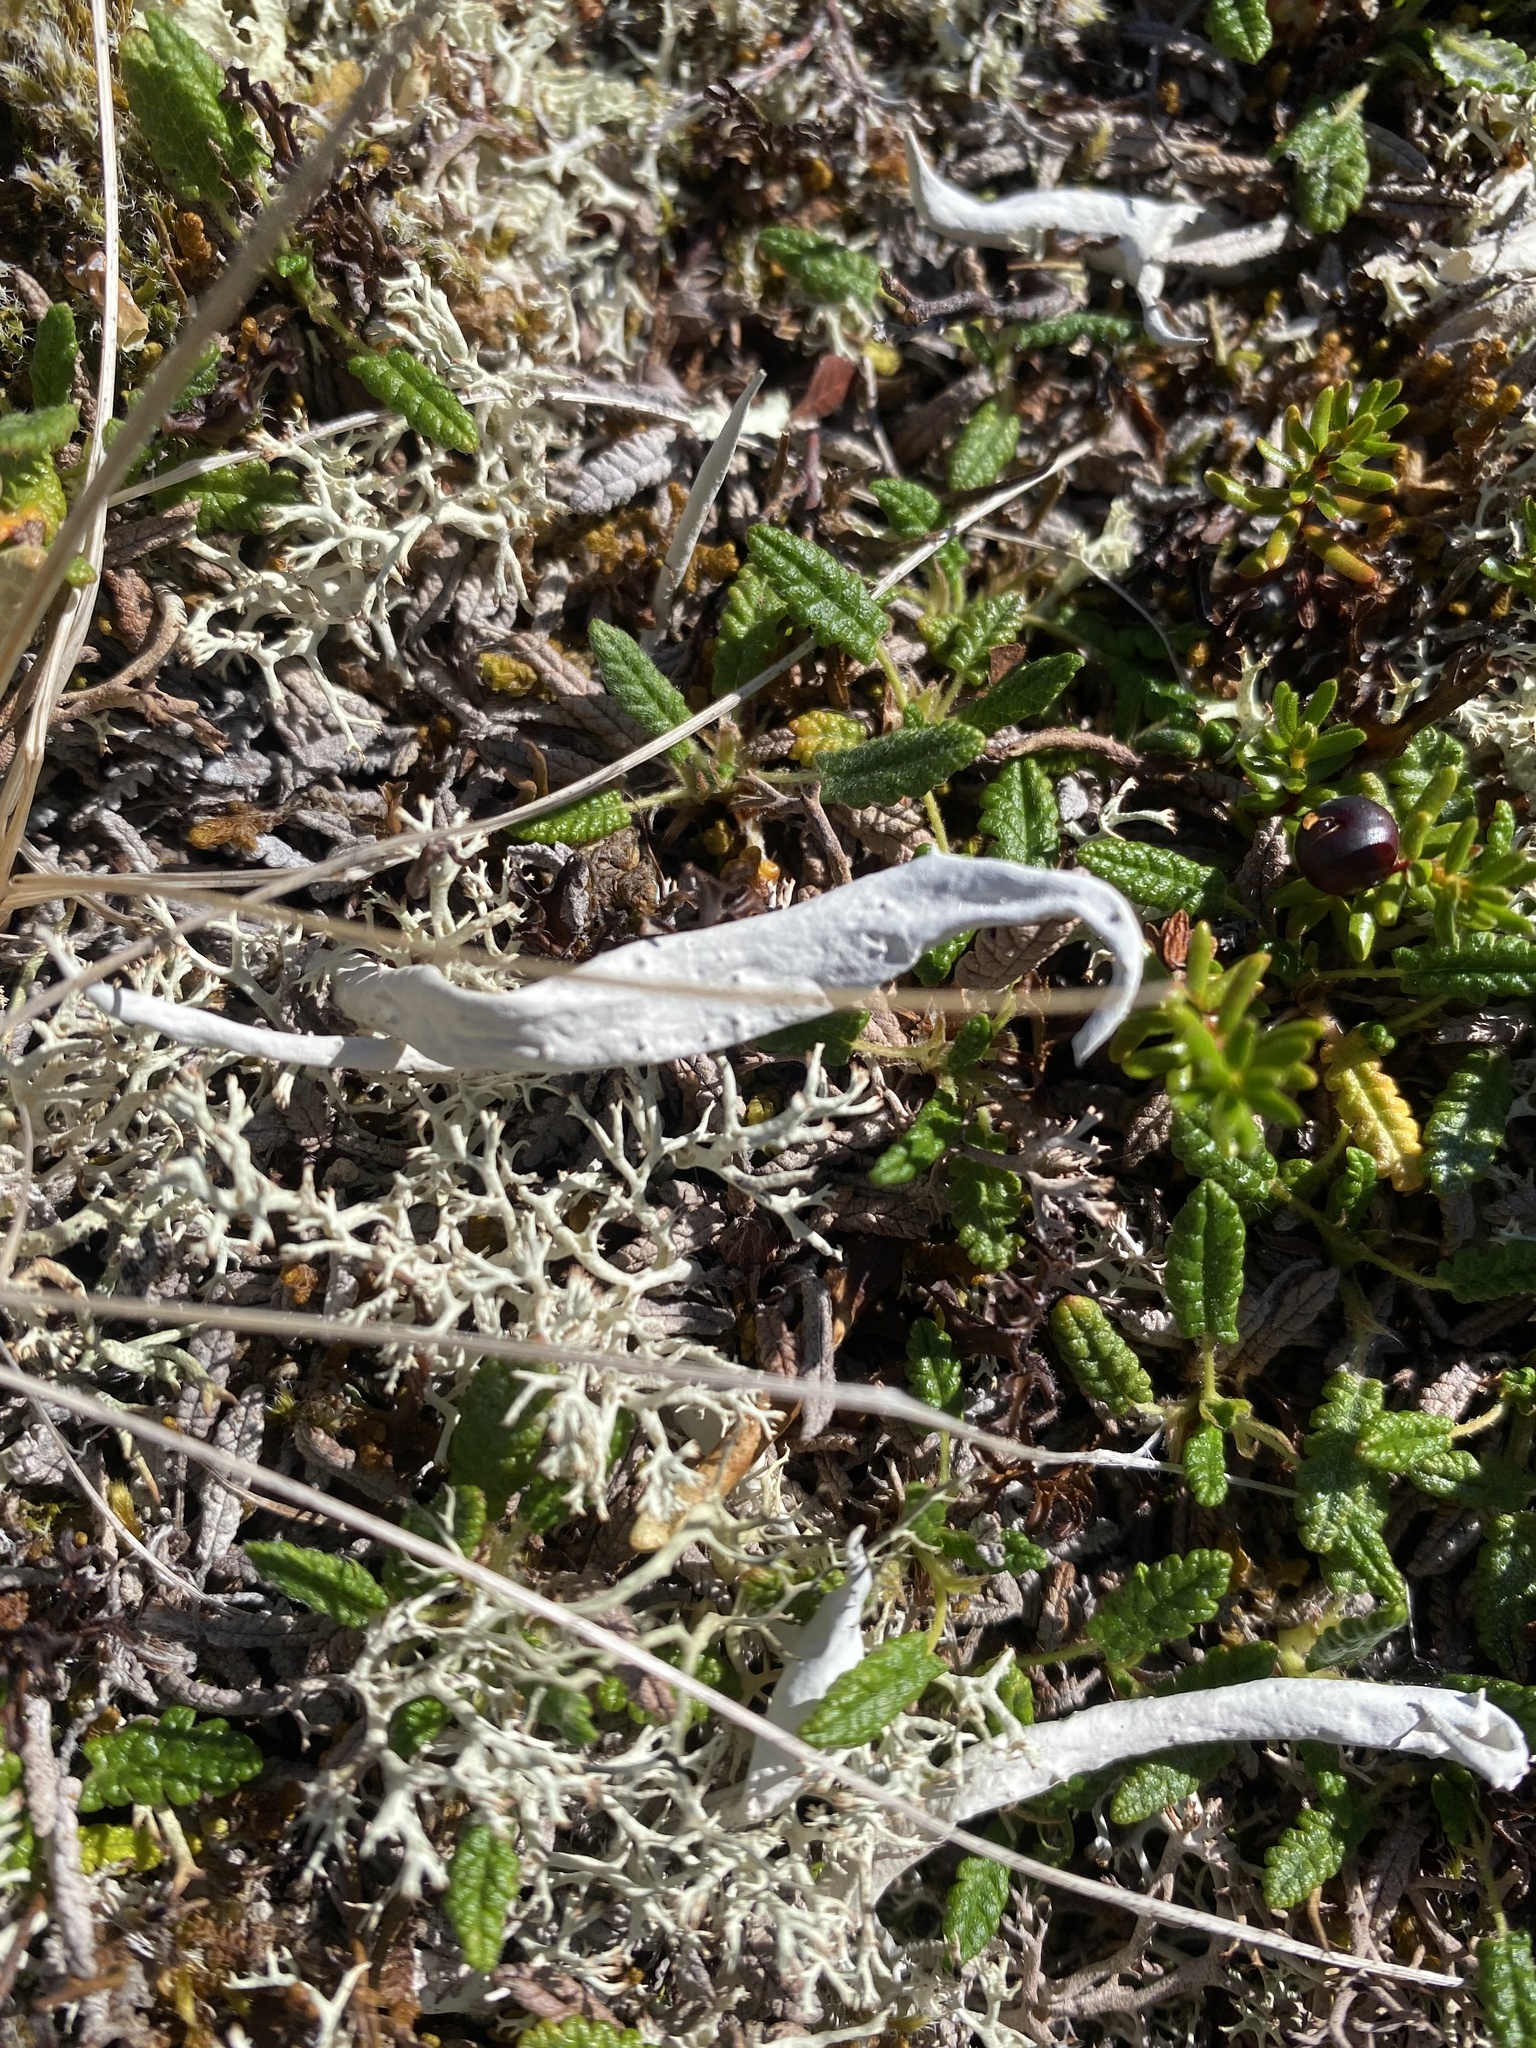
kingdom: Fungi
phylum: Ascomycota
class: Lecanoromycetes
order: Pertusariales
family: Icmadophilaceae
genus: Thamnolia
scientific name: Thamnolia vermicularis
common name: Whiteworm lichen
